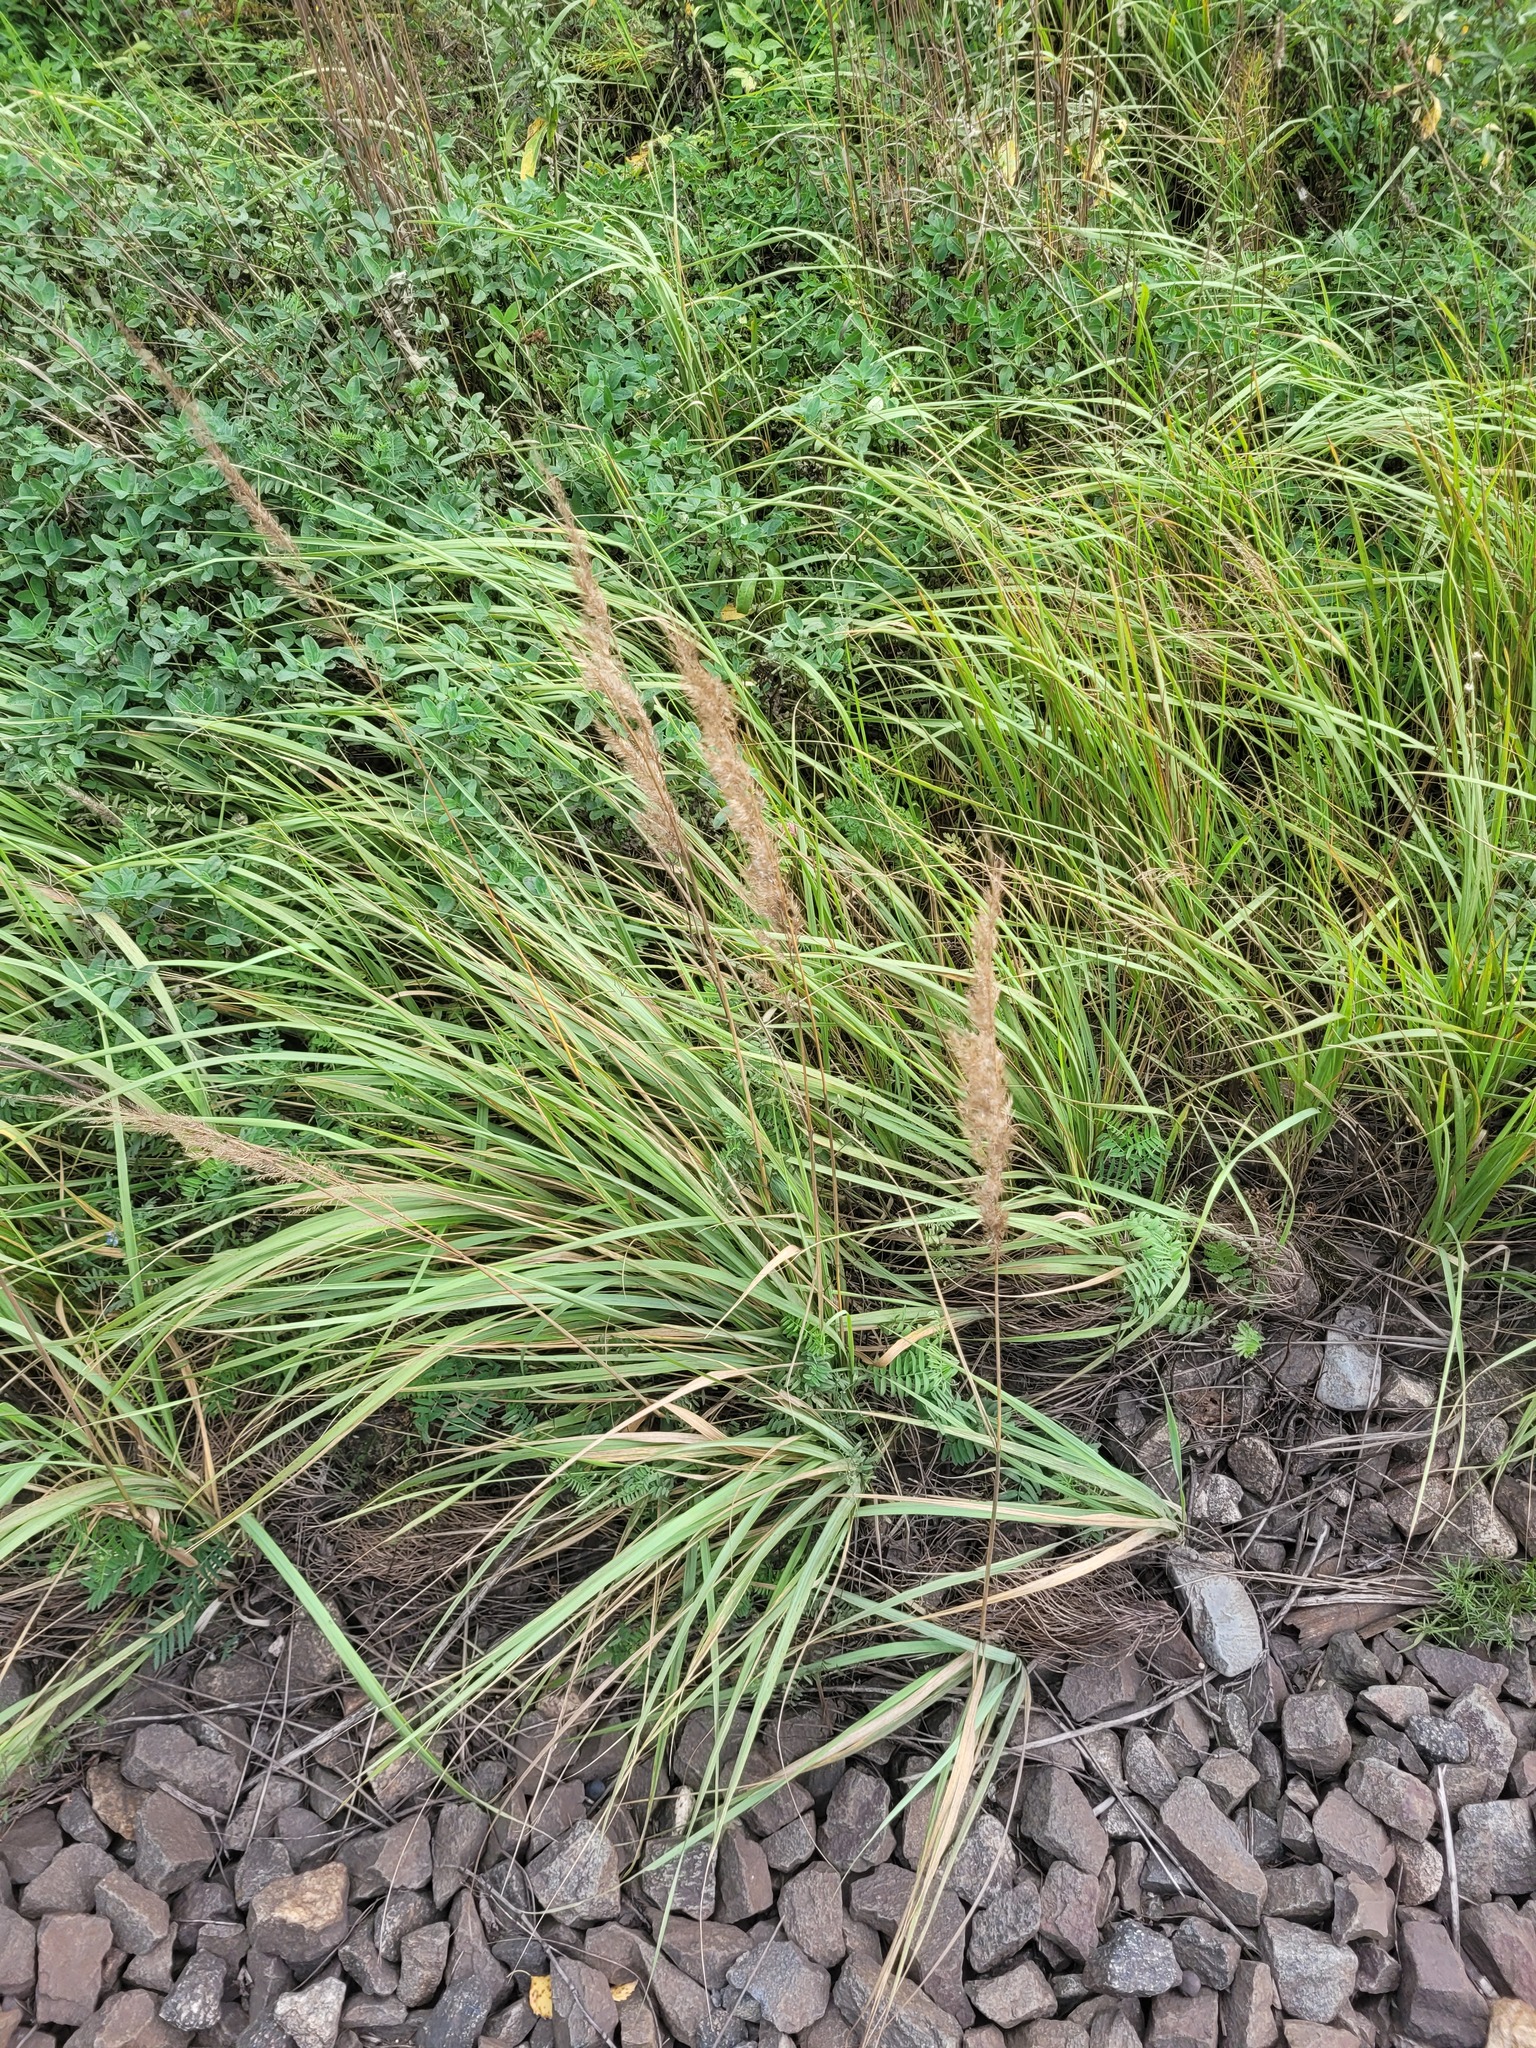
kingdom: Plantae
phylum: Tracheophyta
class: Liliopsida
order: Poales
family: Poaceae
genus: Calamagrostis
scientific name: Calamagrostis epigejos
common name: Wood small-reed
